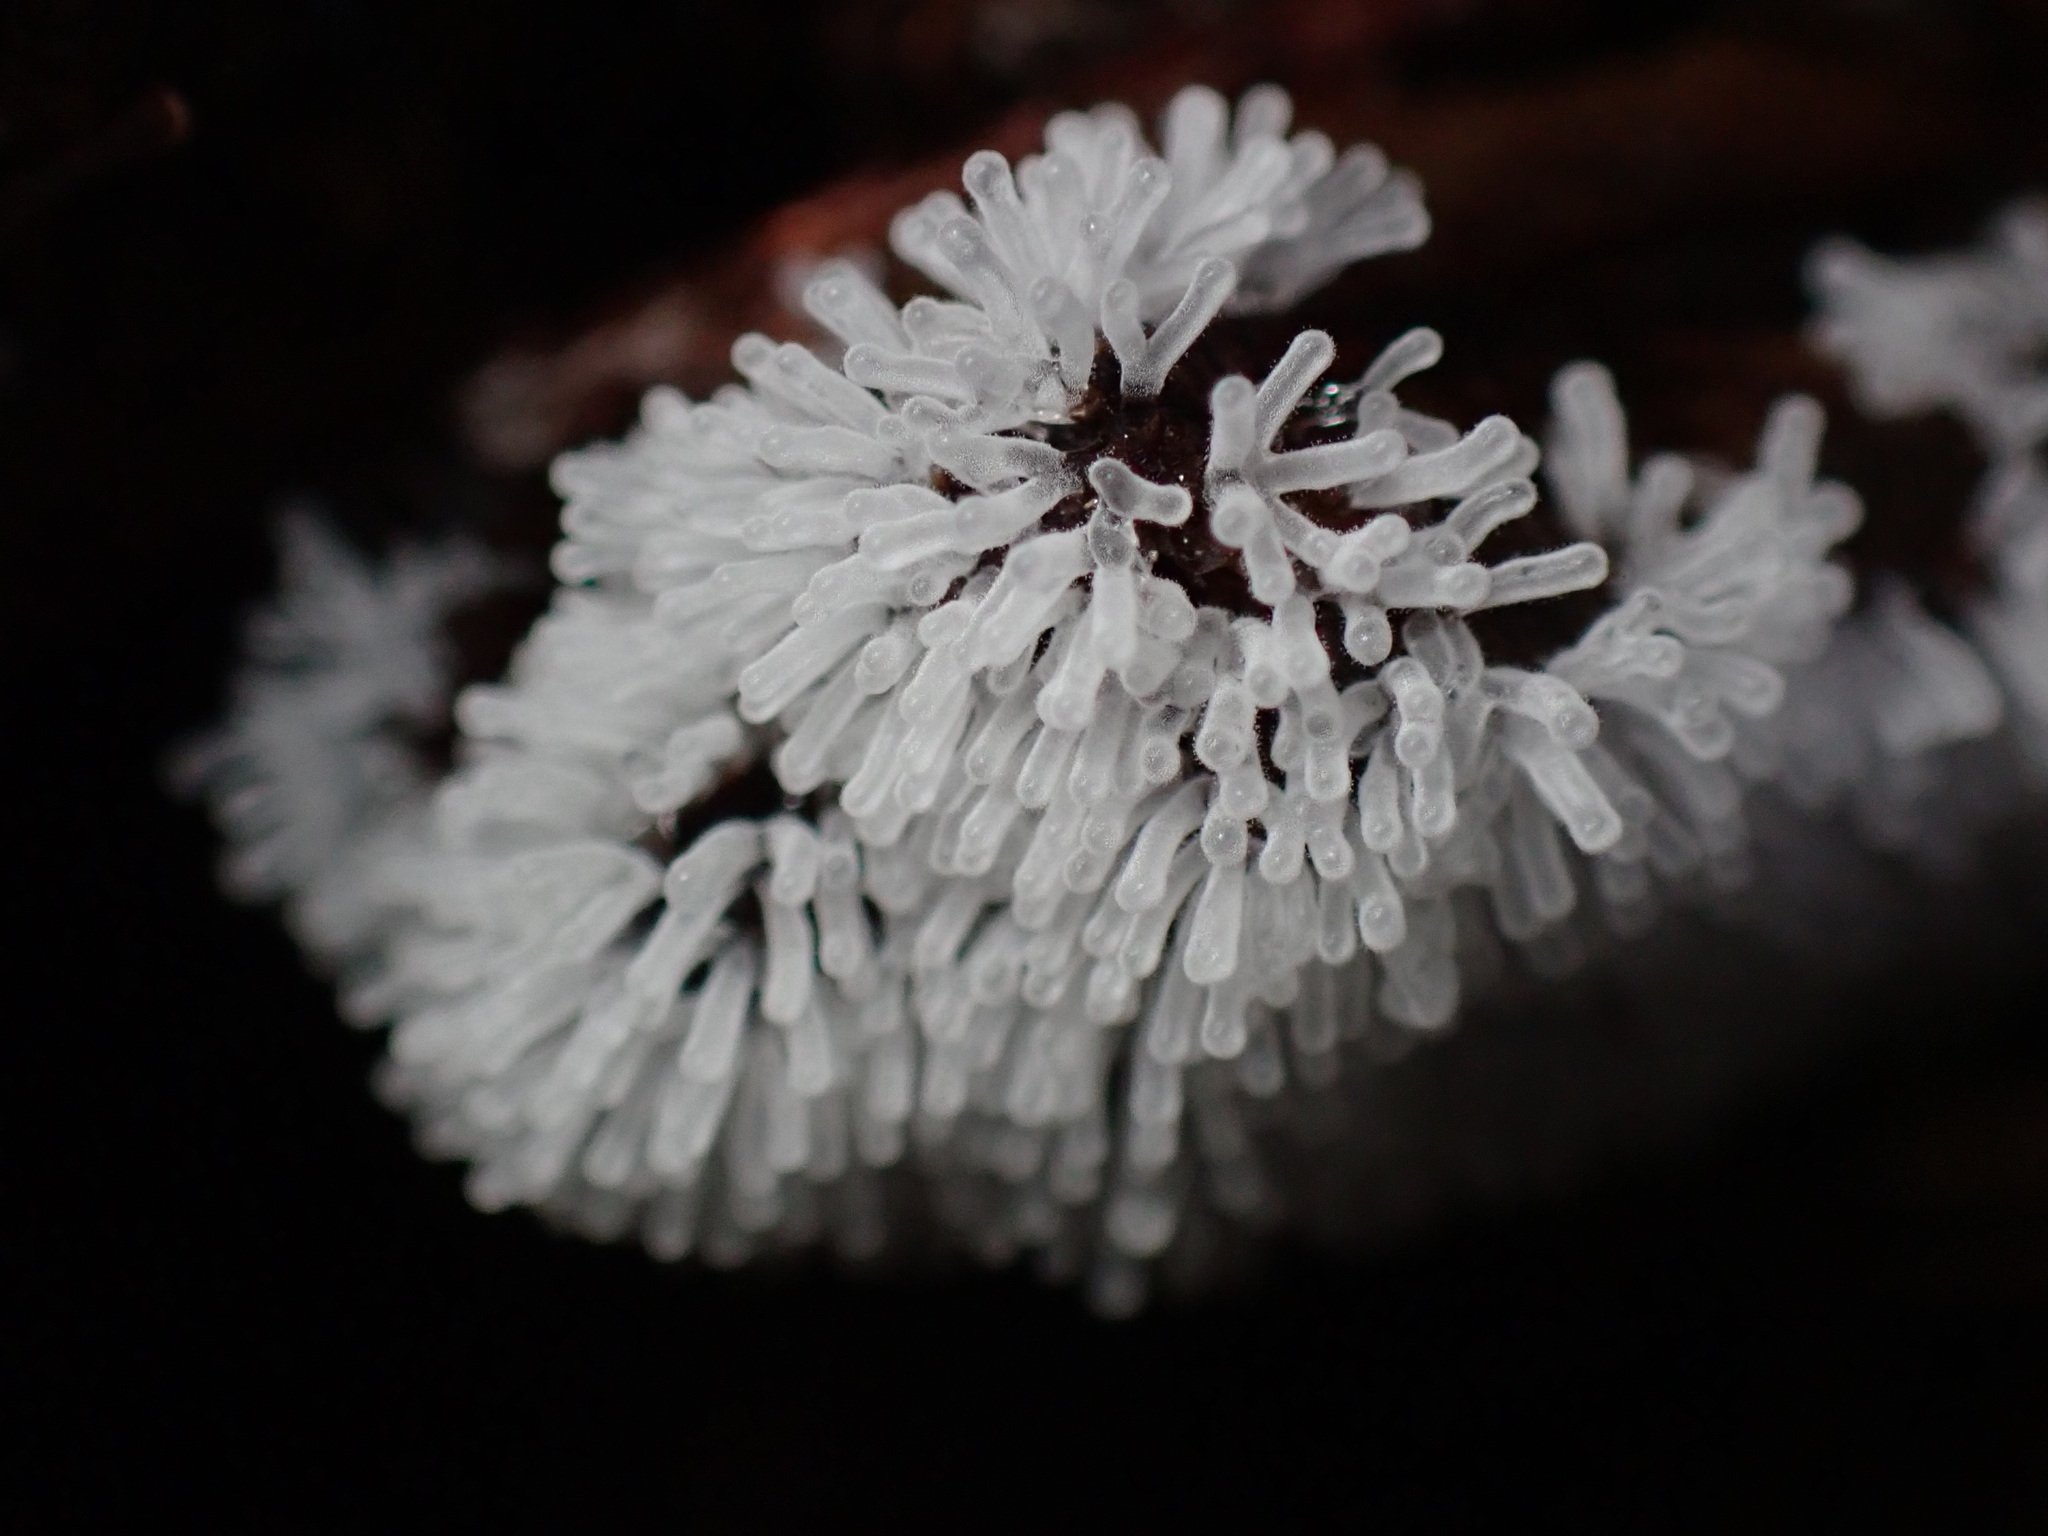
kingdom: Protozoa
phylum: Mycetozoa
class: Protosteliomycetes
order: Ceratiomyxales
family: Ceratiomyxaceae
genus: Ceratiomyxa
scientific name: Ceratiomyxa fruticulosa
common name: Honeycomb coral slime mold
